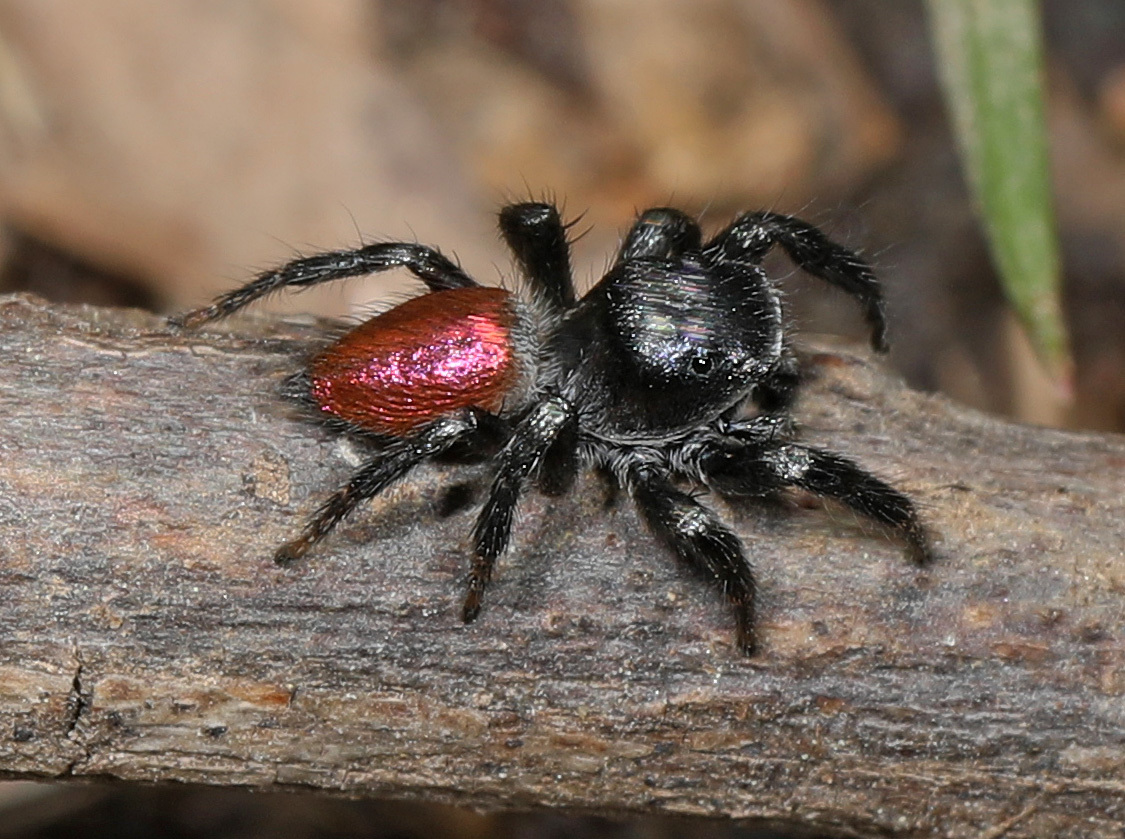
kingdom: Animalia
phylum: Arthropoda
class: Arachnida
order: Araneae
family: Salticidae
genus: Habronattus
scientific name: Habronattus decorus
